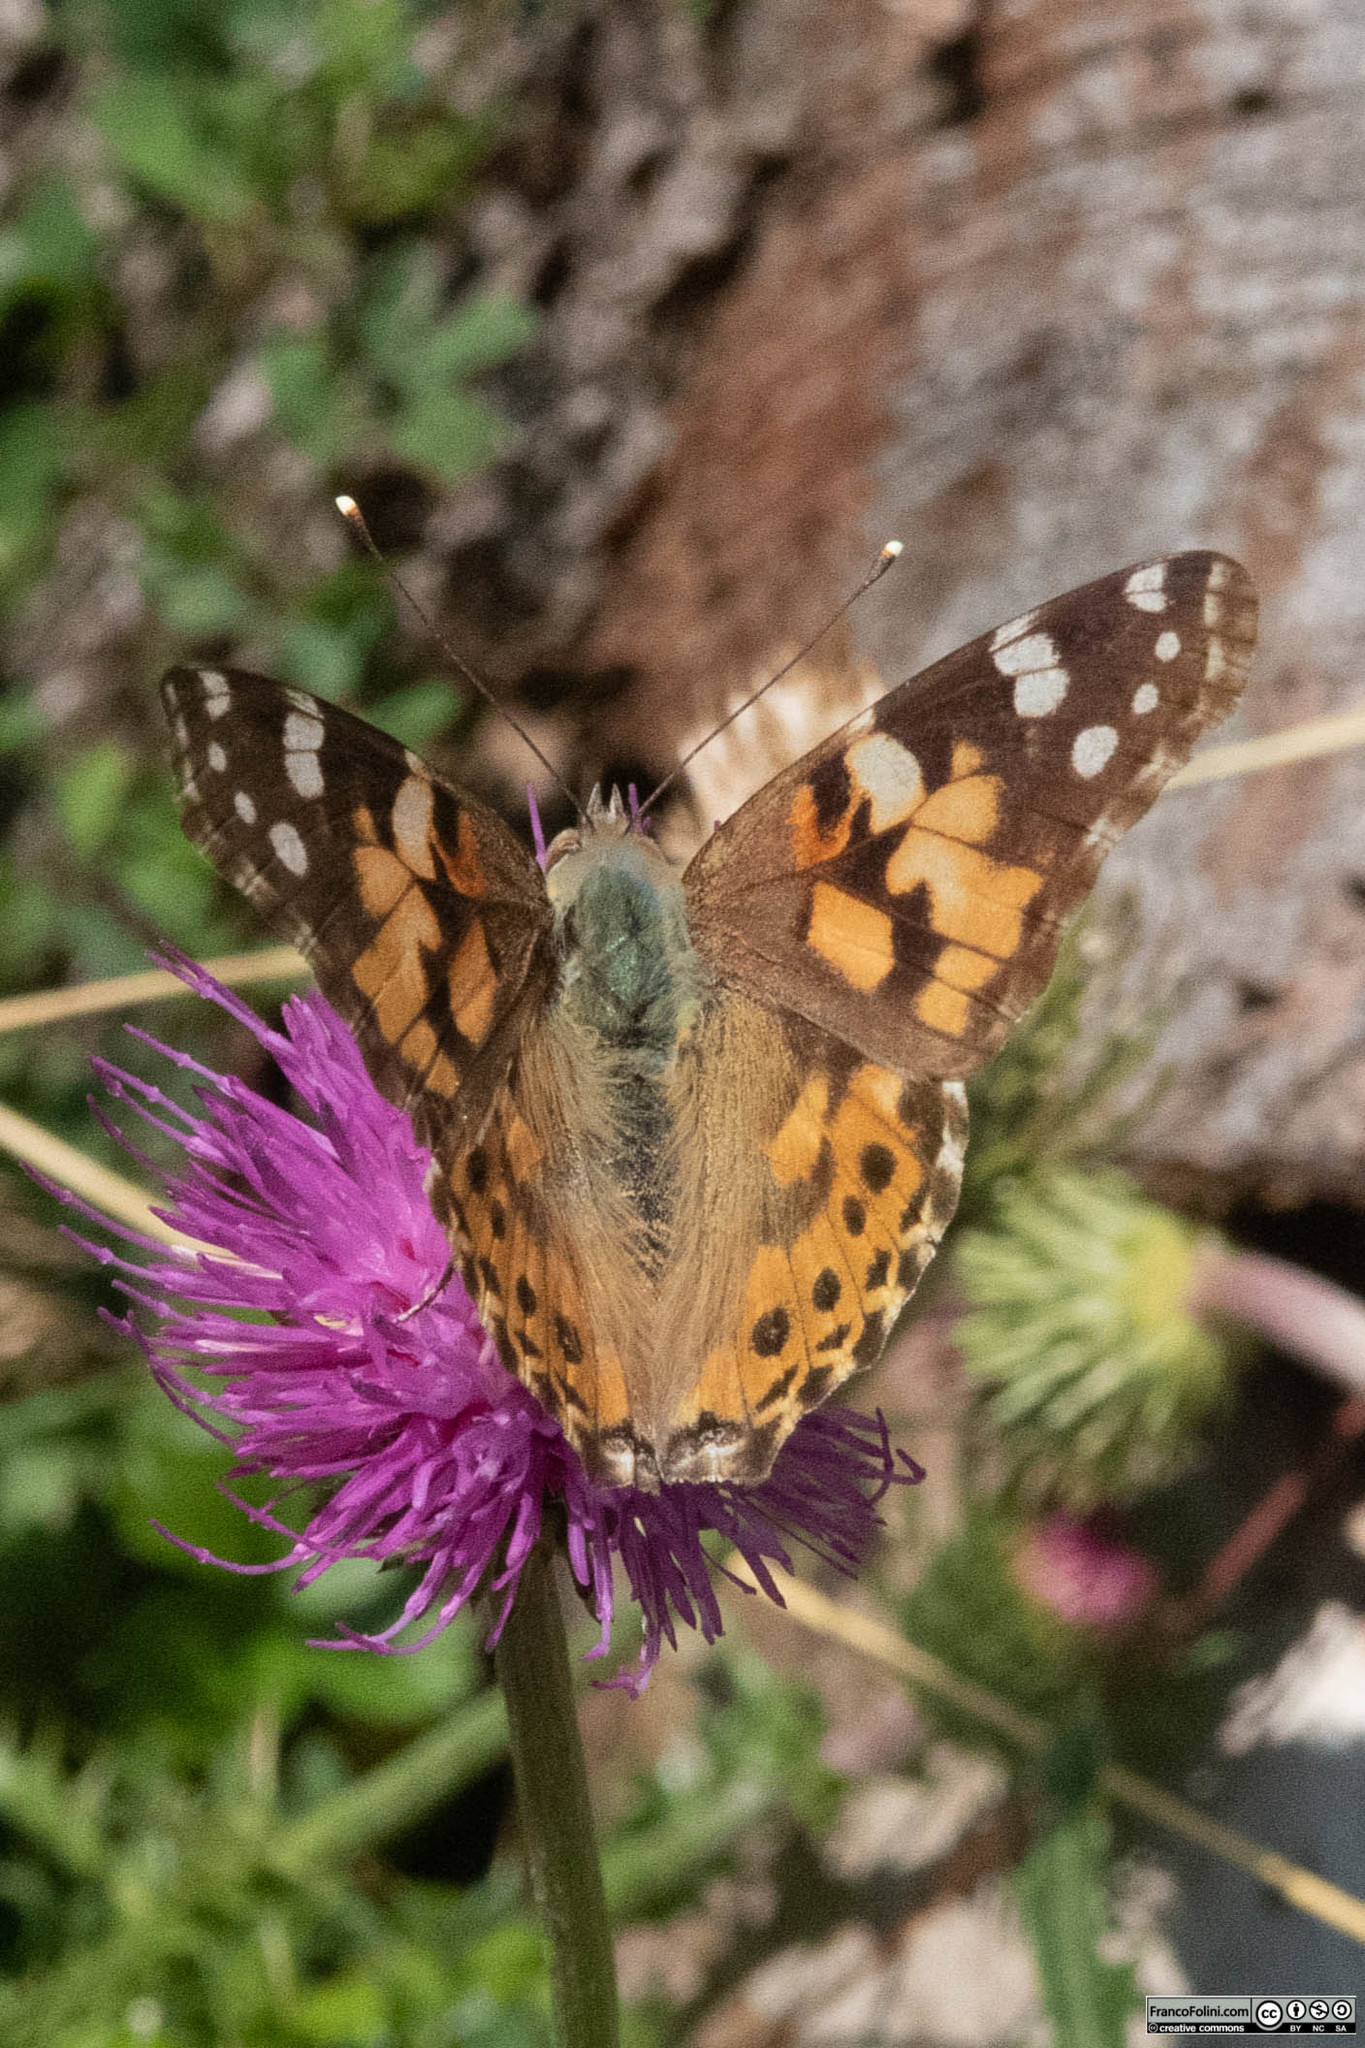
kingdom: Animalia
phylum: Arthropoda
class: Insecta
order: Lepidoptera
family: Nymphalidae
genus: Vanessa
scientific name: Vanessa cardui
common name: Painted lady
